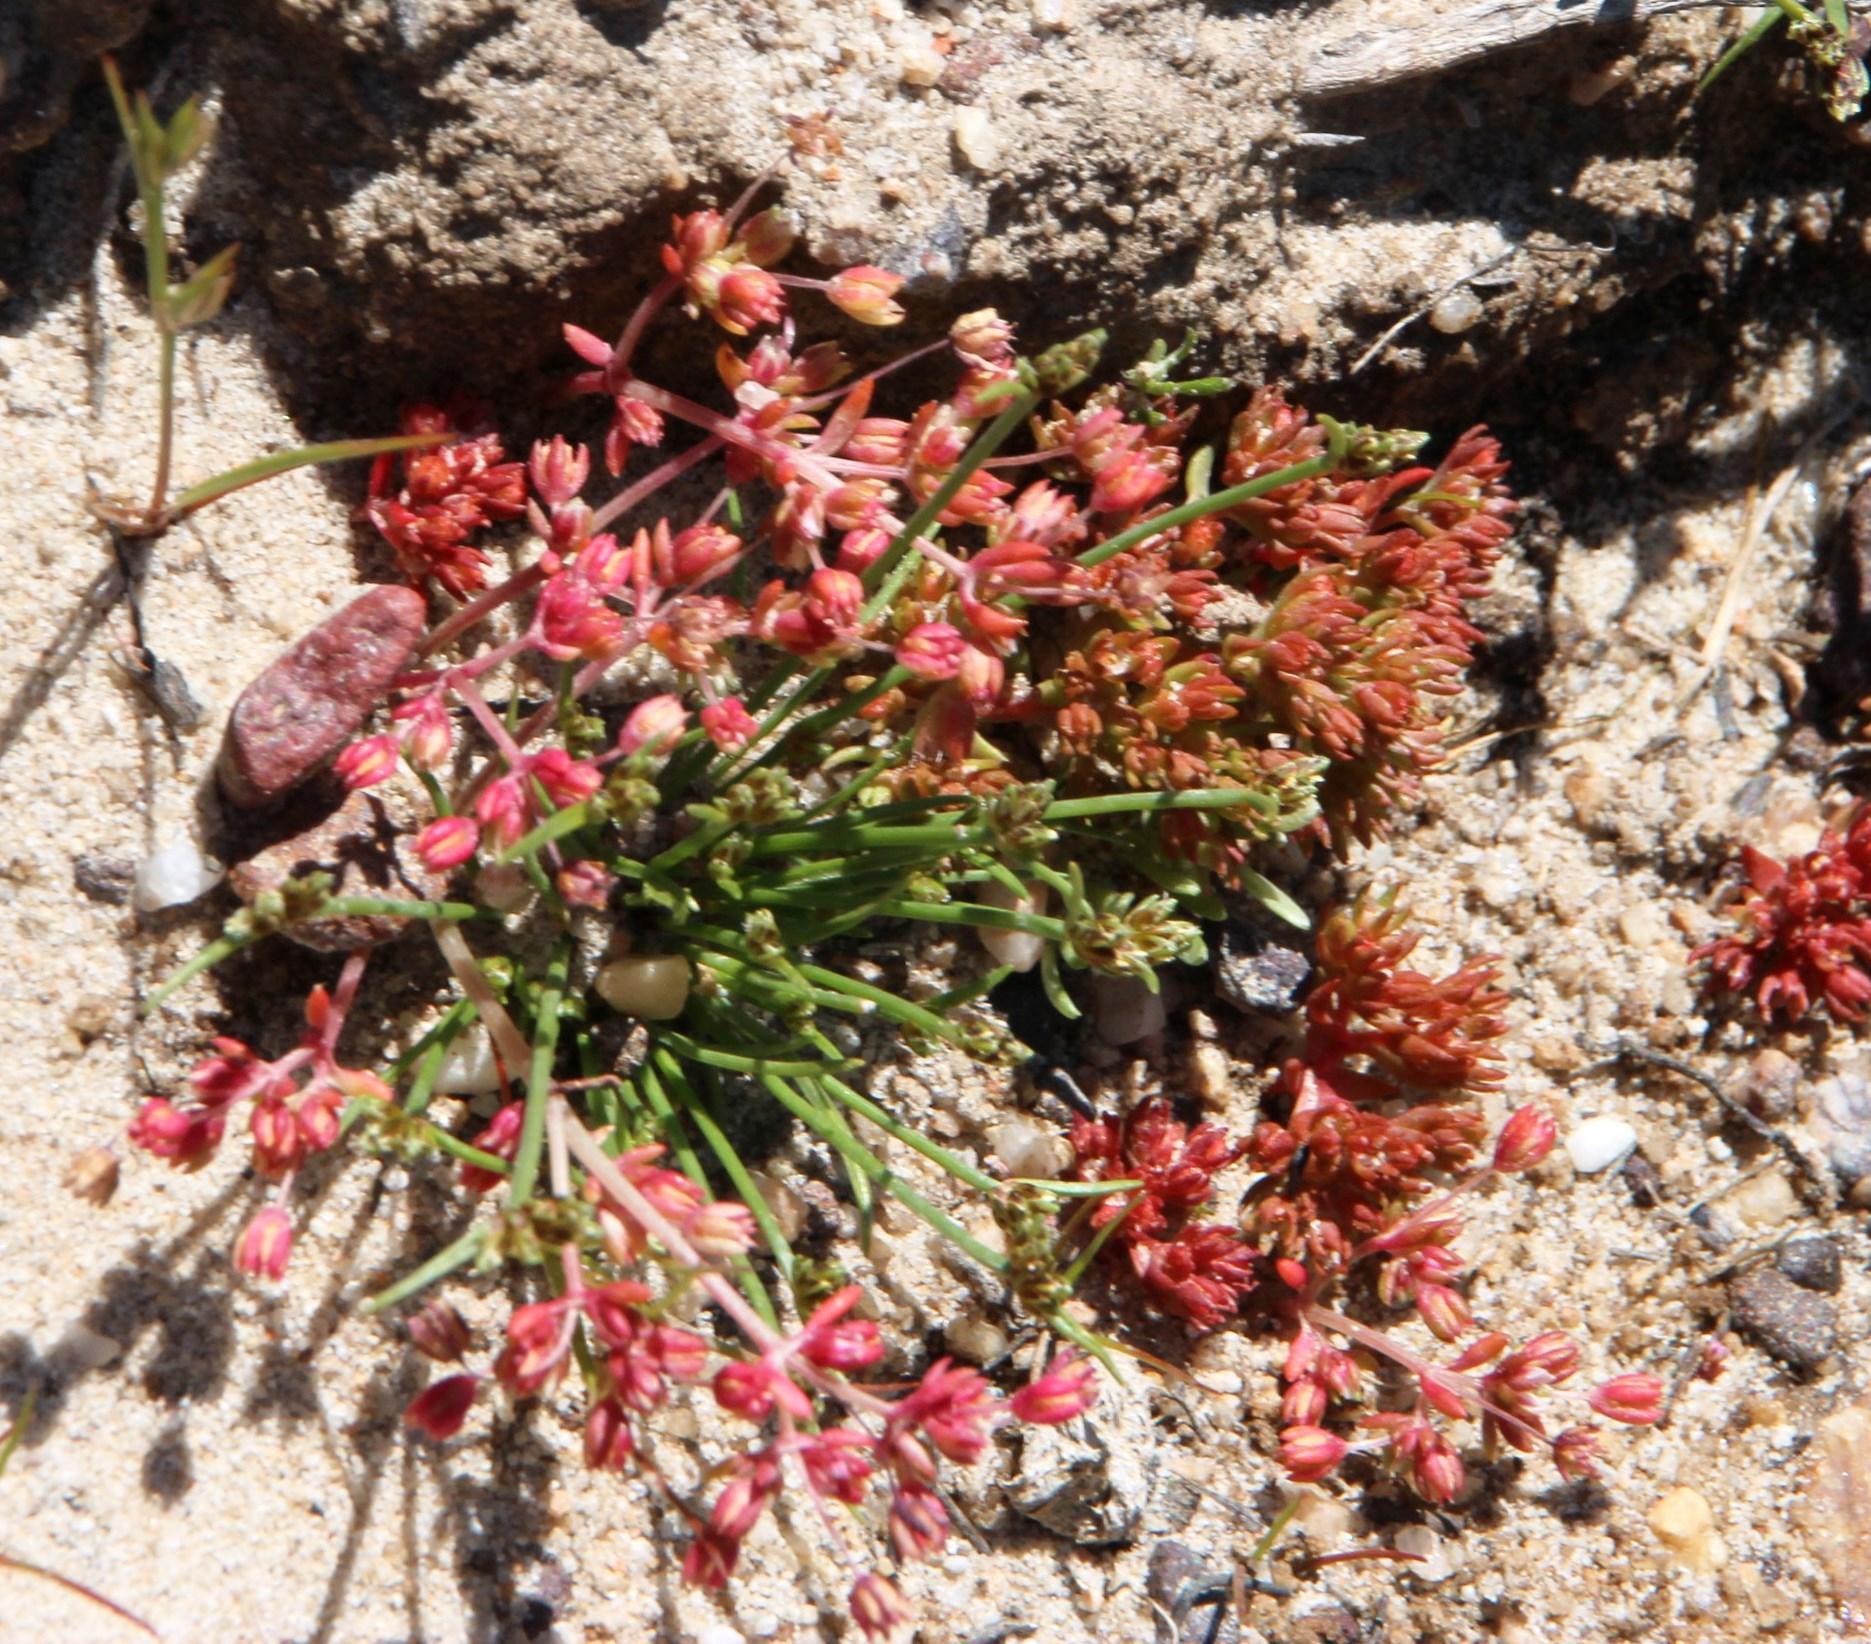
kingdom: Plantae
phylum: Tracheophyta
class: Magnoliopsida
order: Saxifragales
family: Crassulaceae
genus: Crassula
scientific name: Crassula decumbens
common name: Scilly pigmyweed
